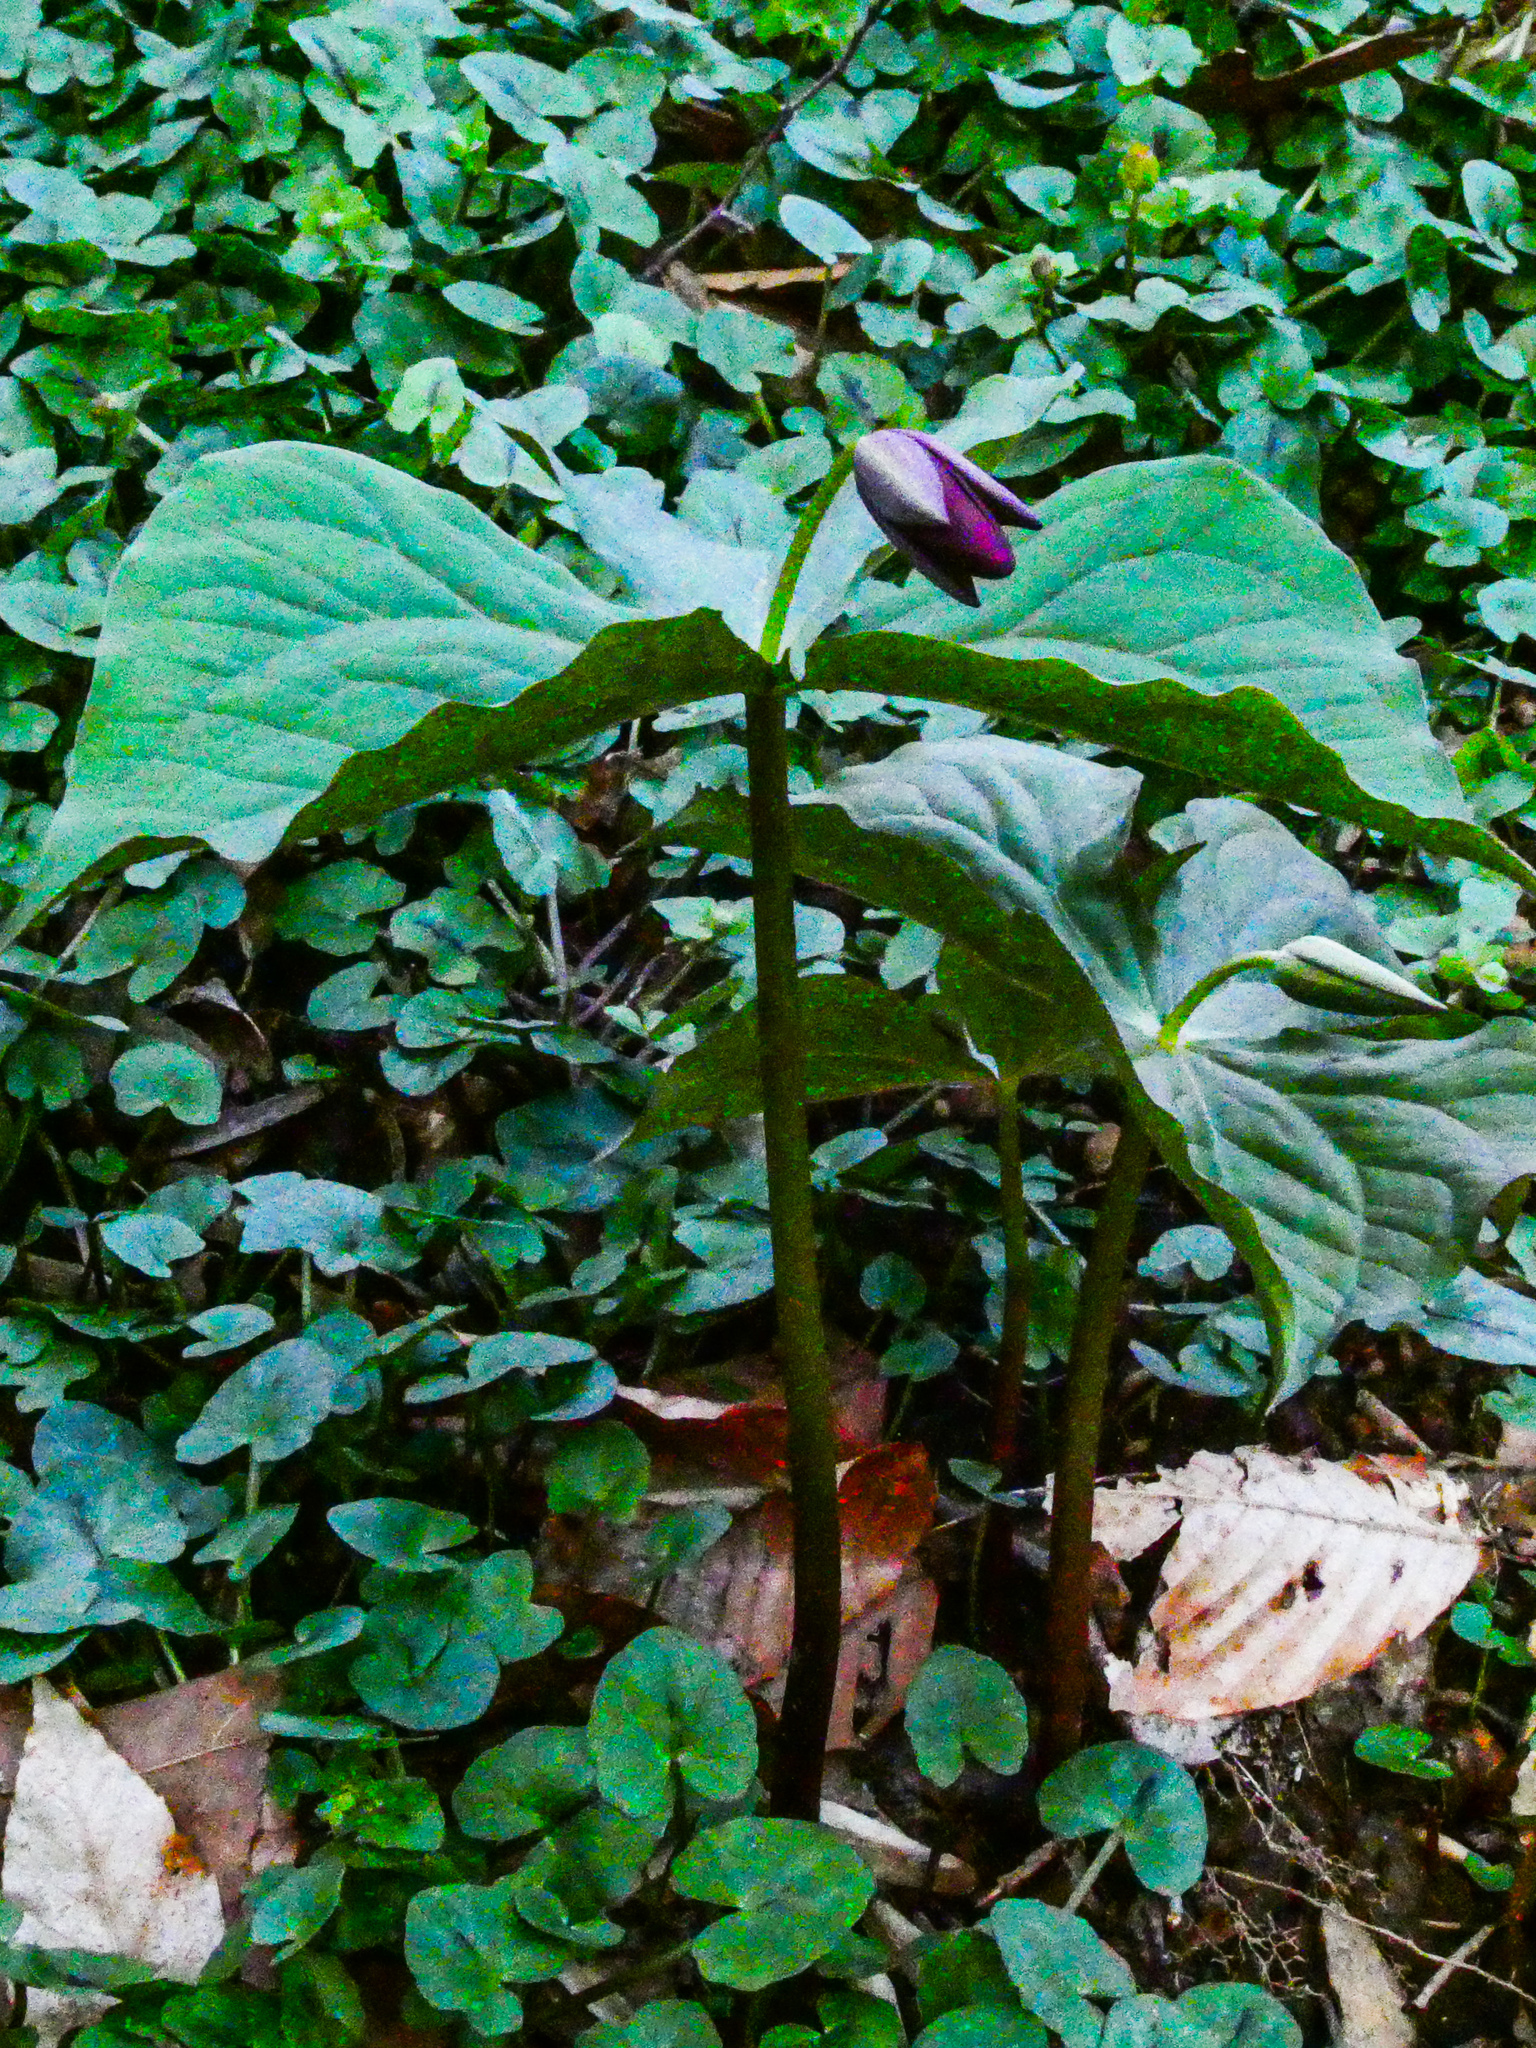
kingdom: Plantae
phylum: Tracheophyta
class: Liliopsida
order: Liliales
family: Melanthiaceae
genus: Trillium
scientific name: Trillium erectum
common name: Purple trillium
